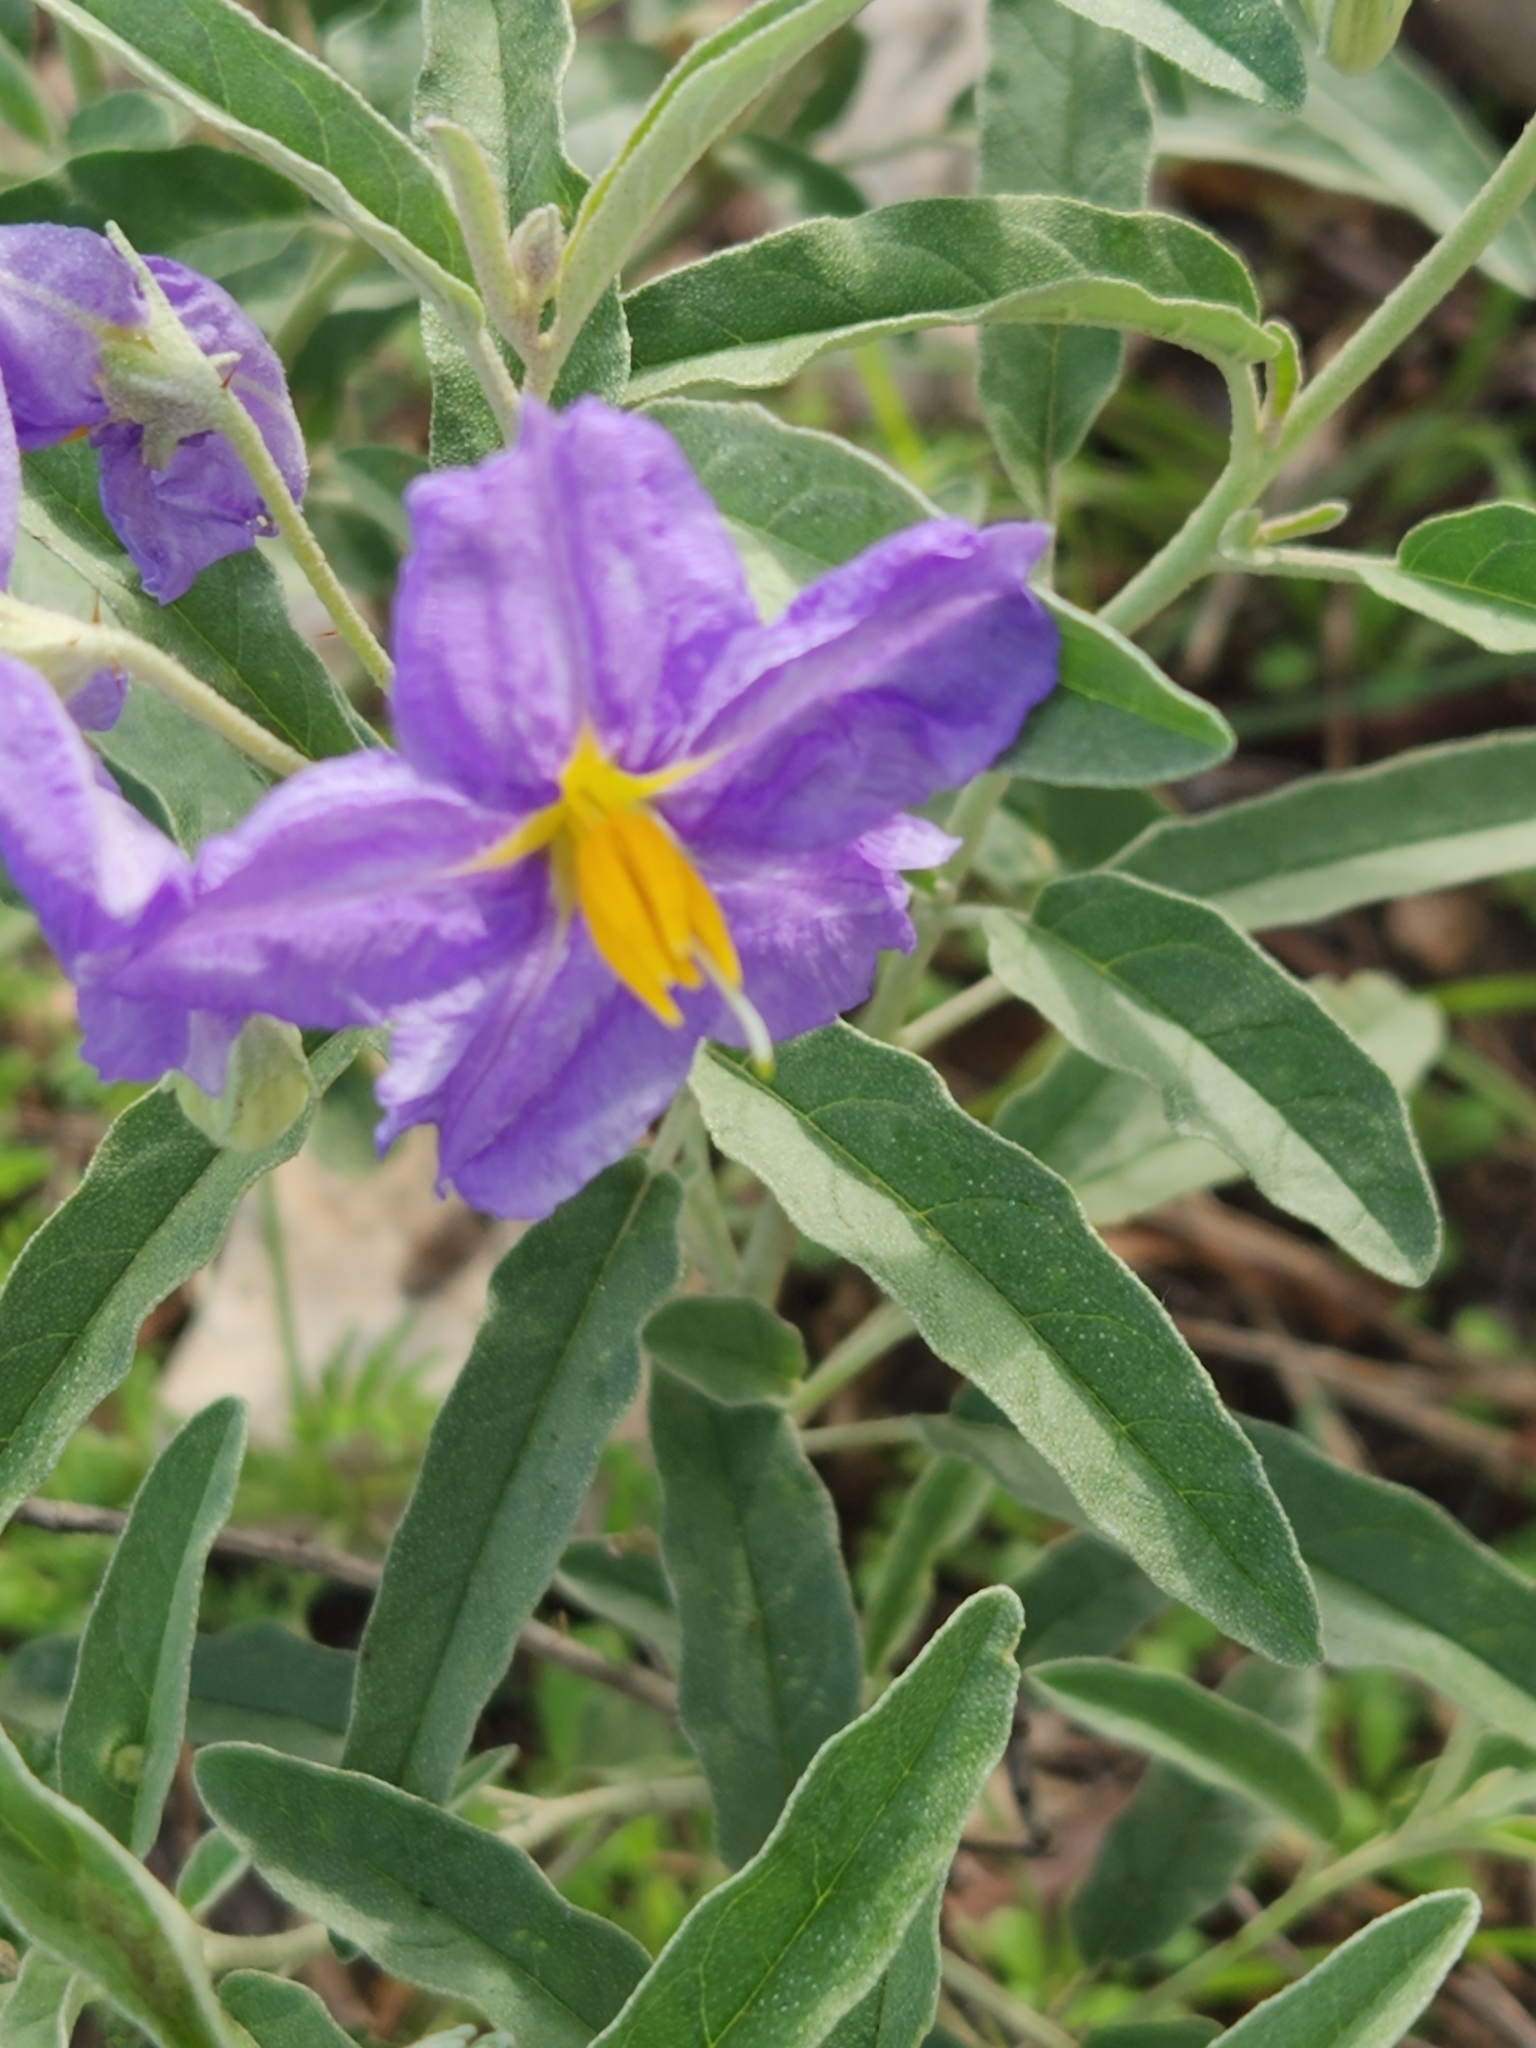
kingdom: Plantae
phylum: Tracheophyta
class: Magnoliopsida
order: Solanales
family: Solanaceae
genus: Solanum
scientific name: Solanum elaeagnifolium
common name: Silverleaf nightshade
